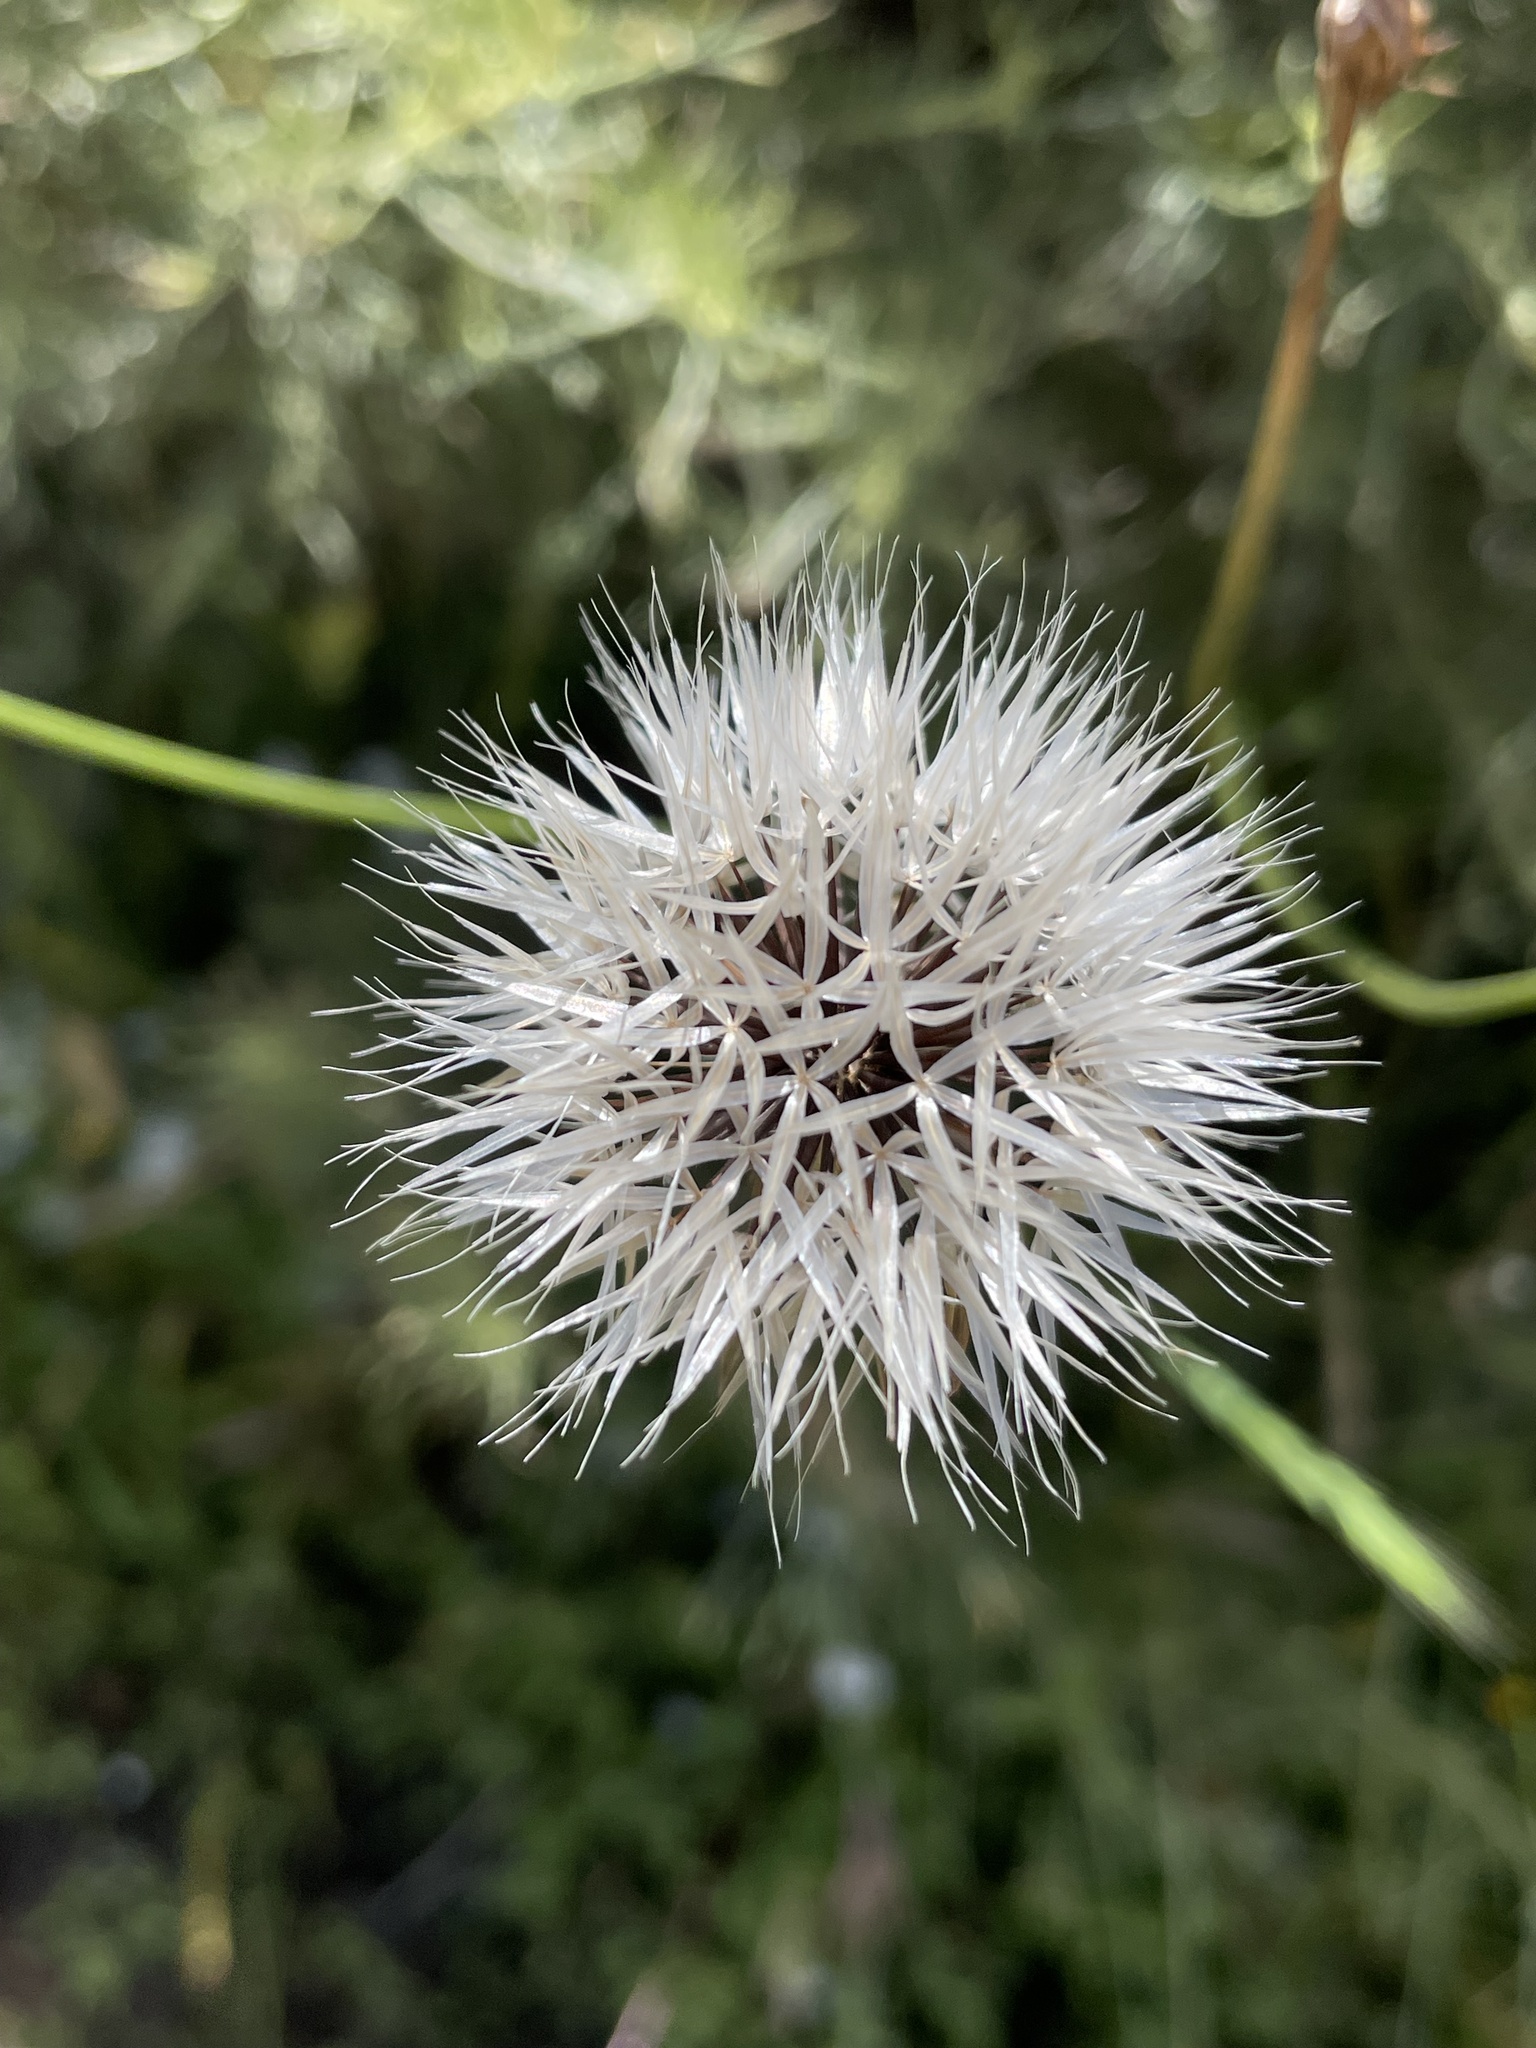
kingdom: Plantae
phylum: Tracheophyta
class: Magnoliopsida
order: Asterales
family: Asteraceae
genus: Microseris
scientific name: Microseris lindleyi
